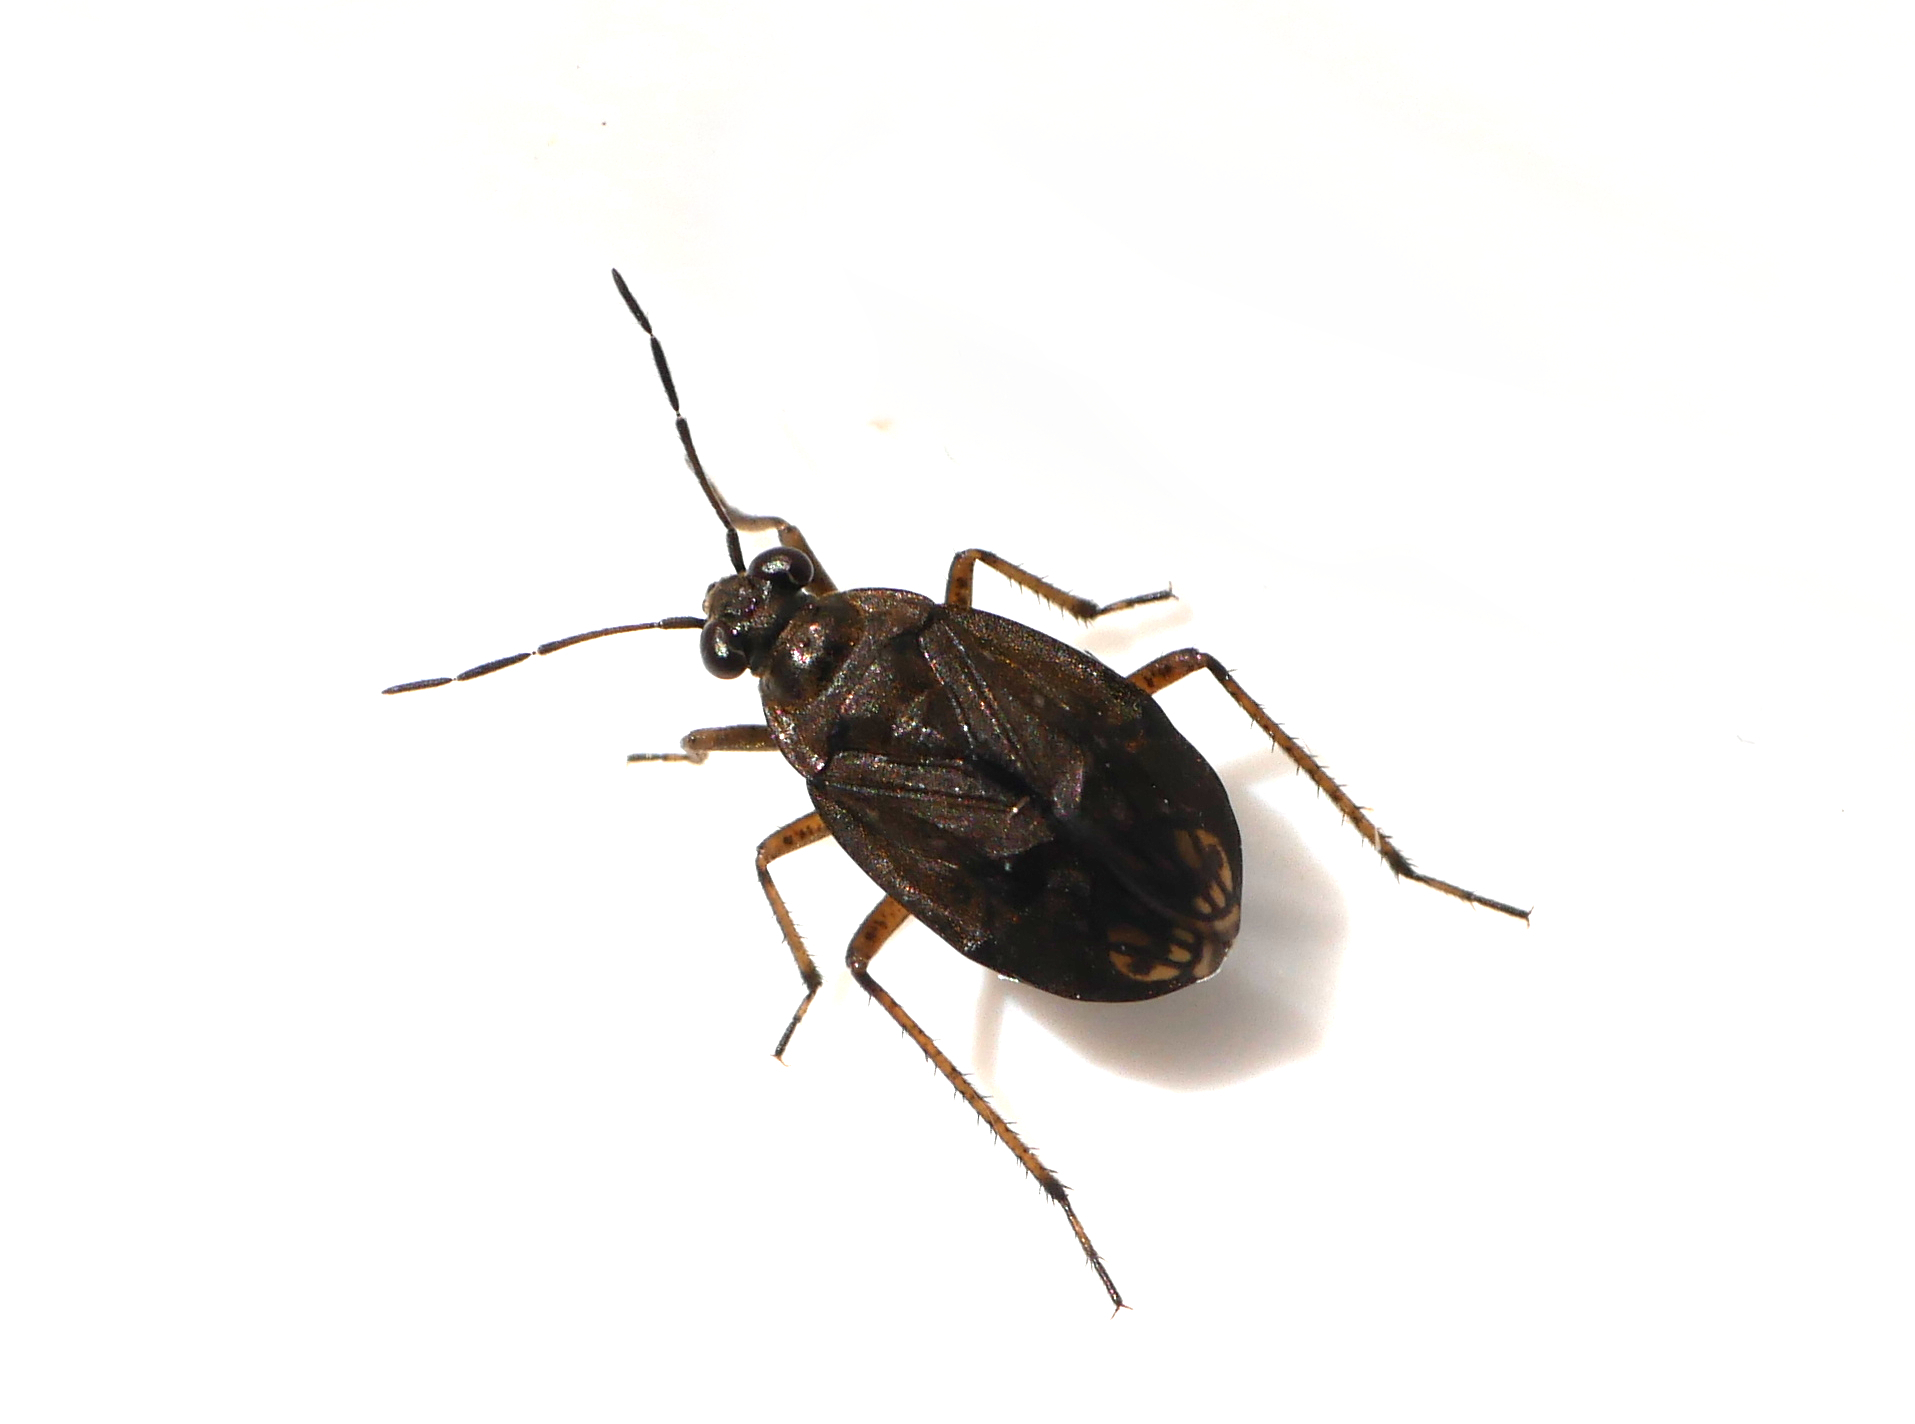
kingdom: Animalia
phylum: Arthropoda
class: Insecta
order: Hemiptera
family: Saldidae
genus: Salda
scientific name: Salda littoralis
